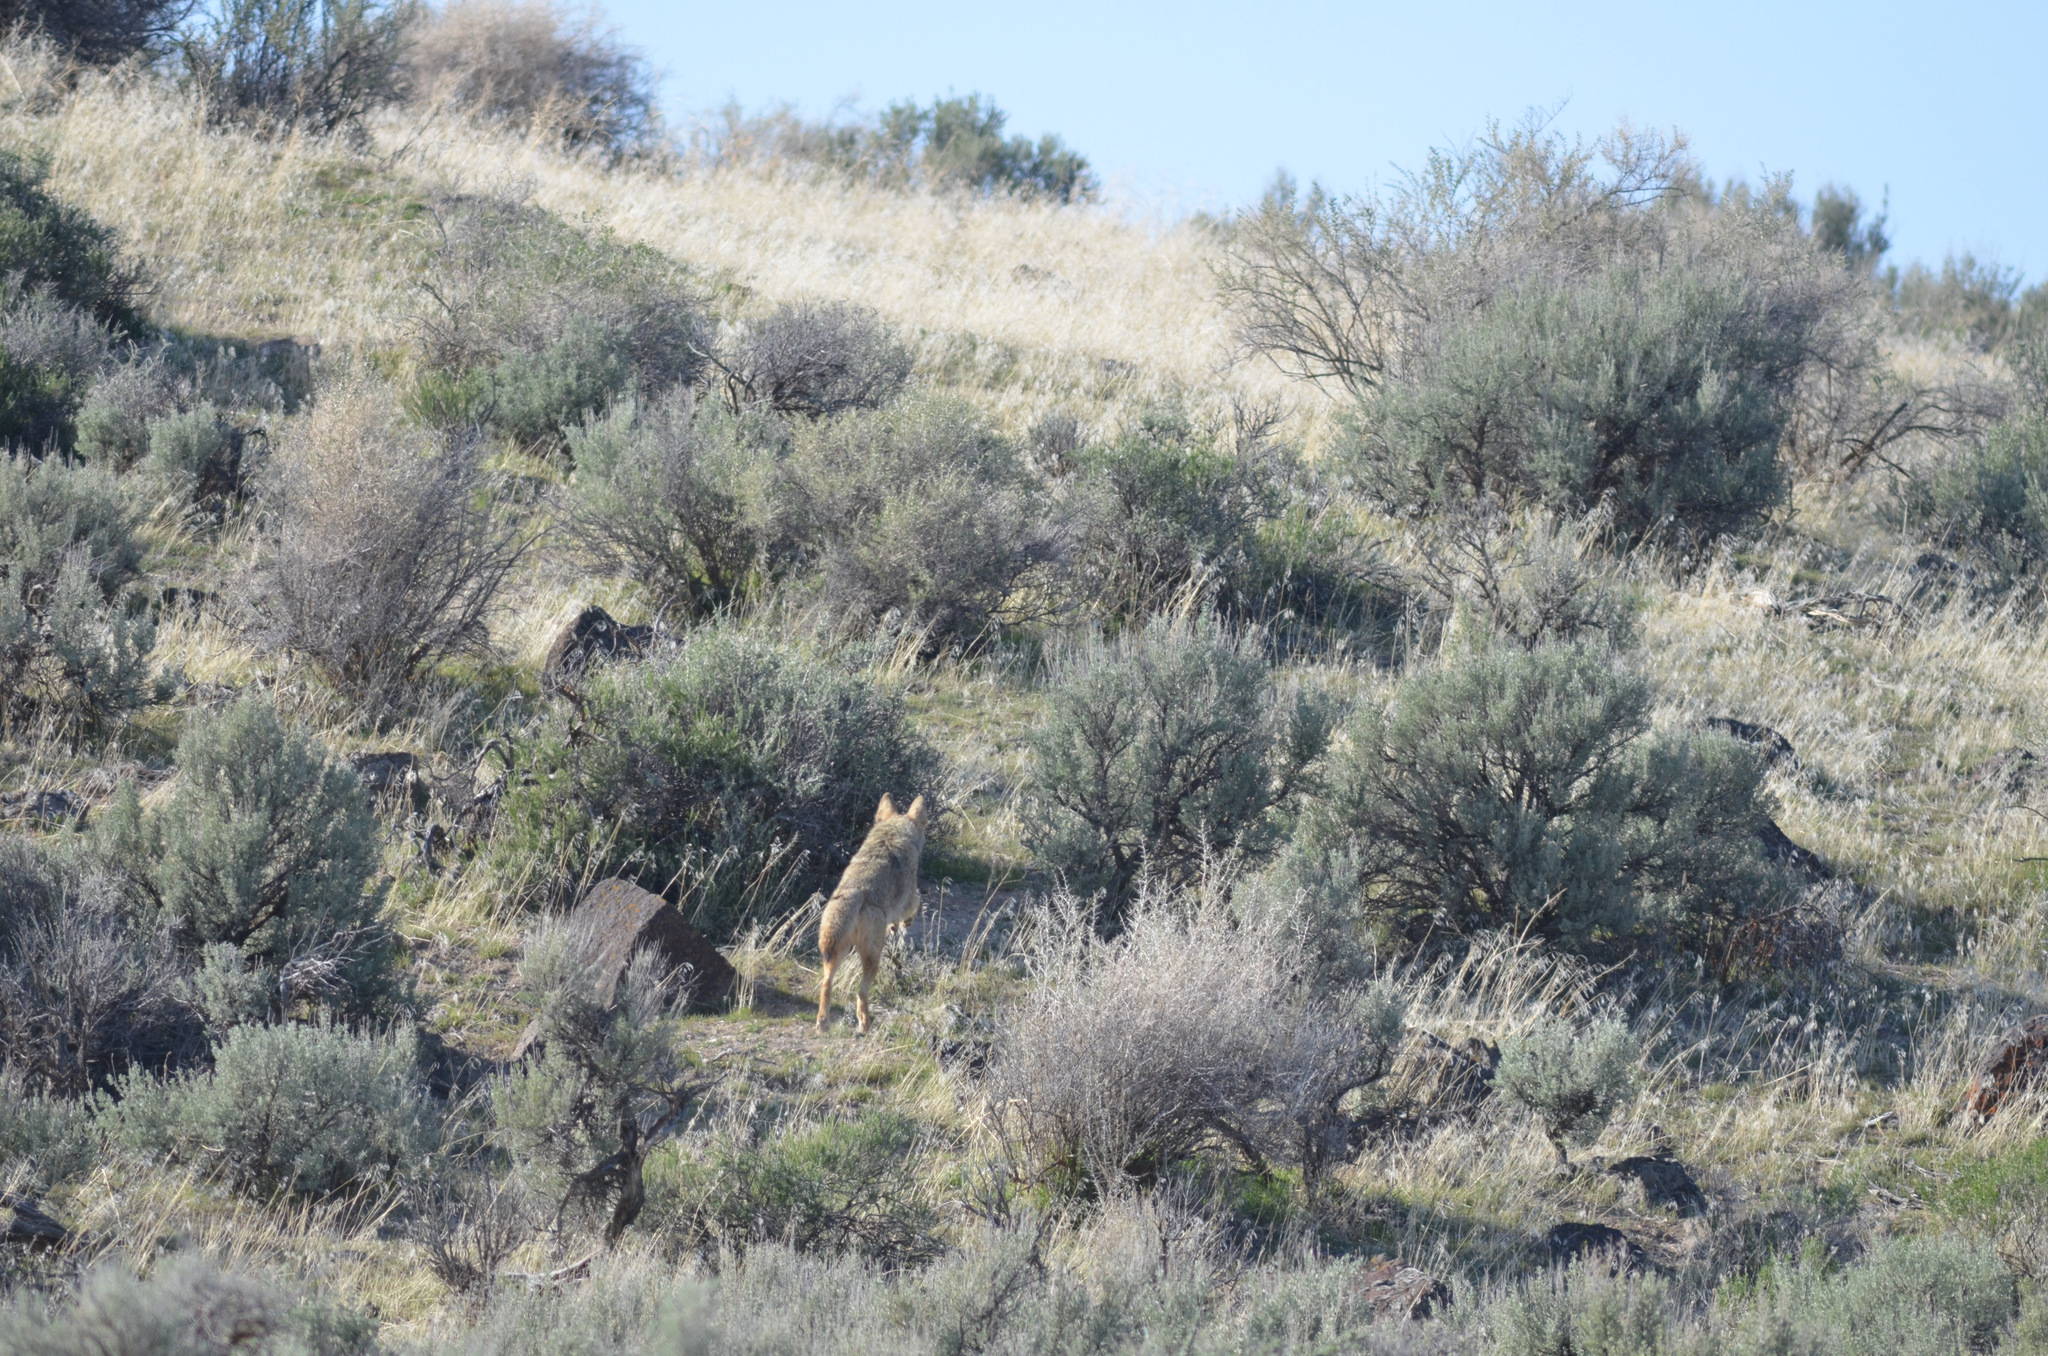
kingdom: Animalia
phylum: Chordata
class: Mammalia
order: Carnivora
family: Canidae
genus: Canis
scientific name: Canis latrans
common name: Coyote
